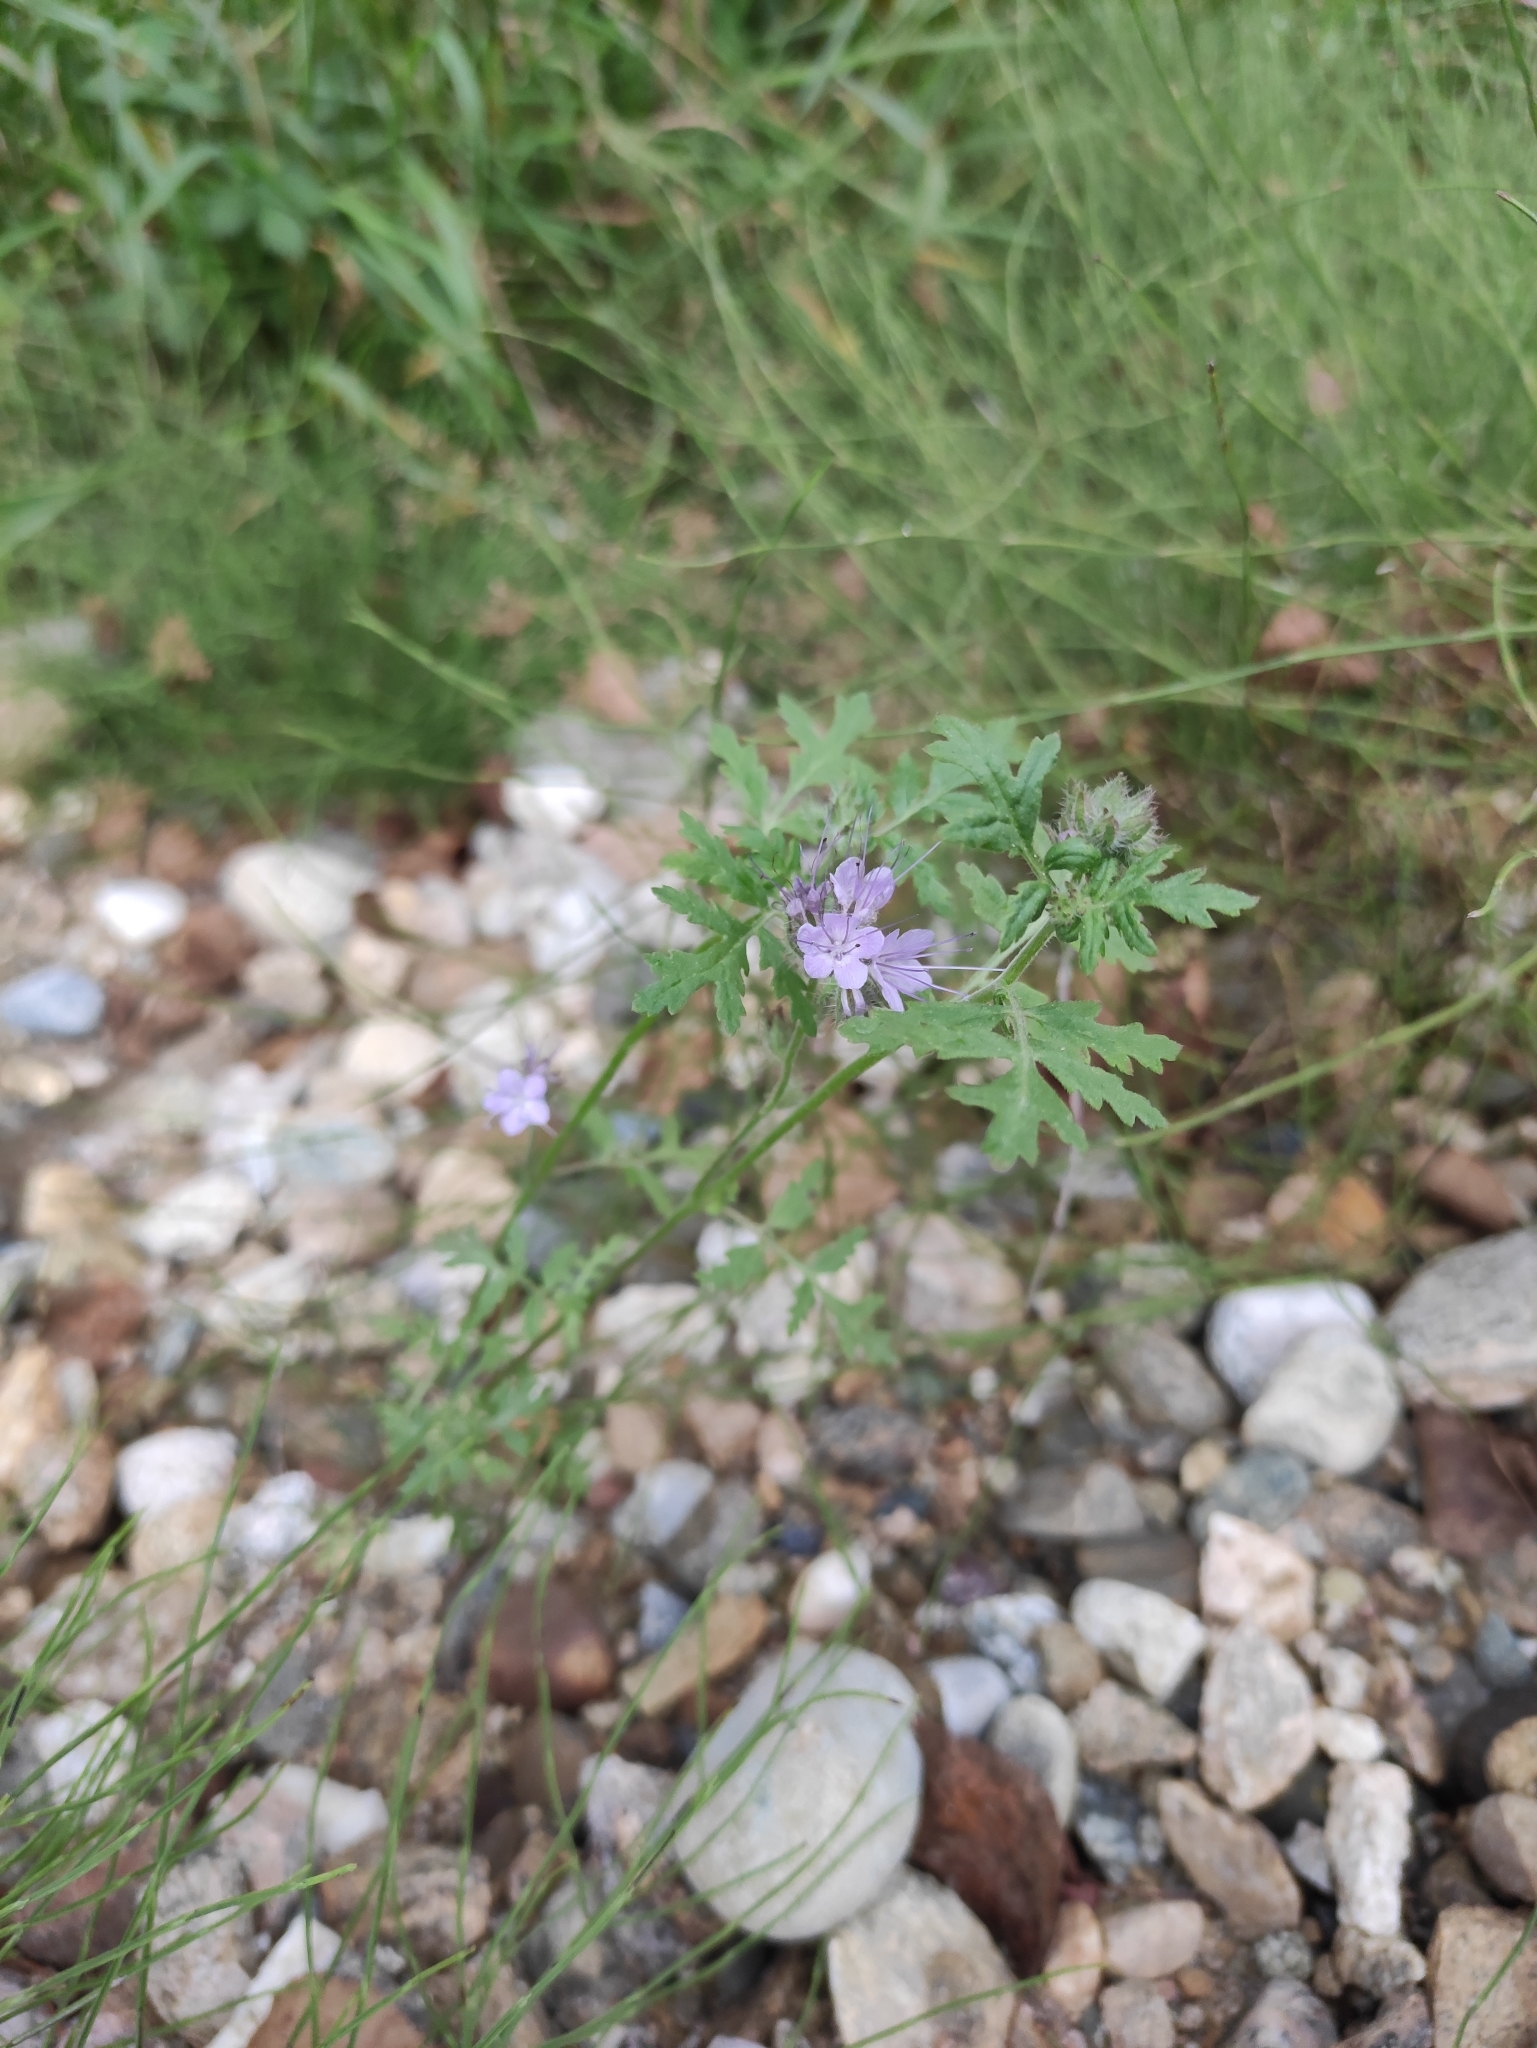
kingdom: Plantae
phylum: Tracheophyta
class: Magnoliopsida
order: Boraginales
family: Hydrophyllaceae
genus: Phacelia
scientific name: Phacelia tanacetifolia
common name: Phacelia
